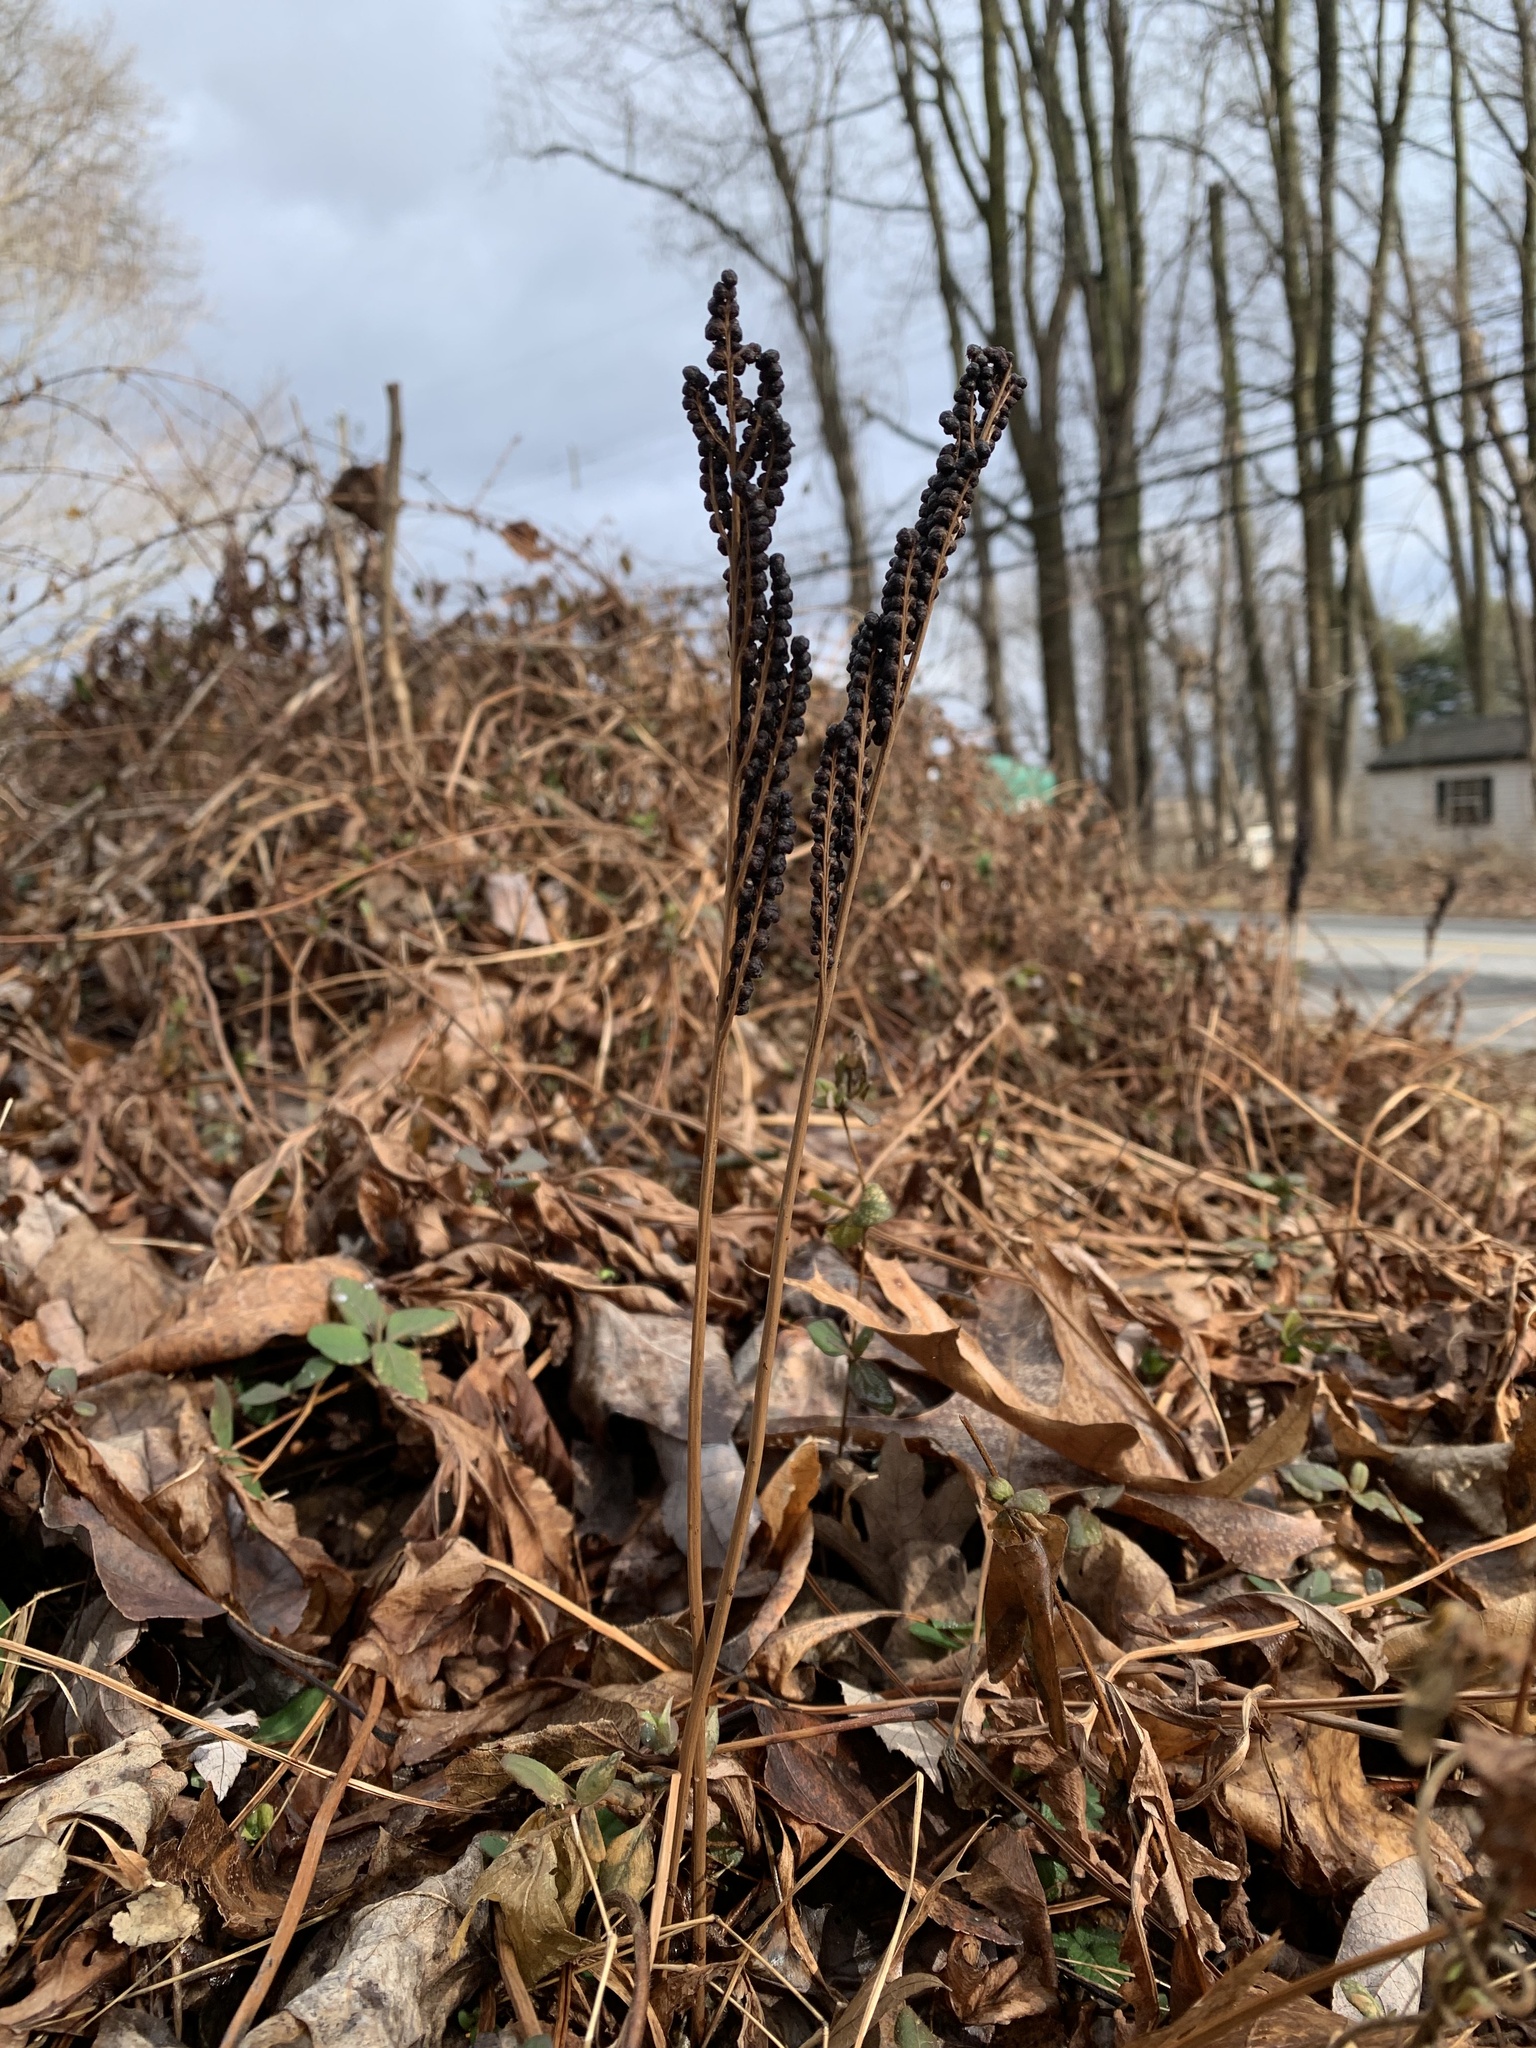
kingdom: Plantae
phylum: Tracheophyta
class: Polypodiopsida
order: Polypodiales
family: Onocleaceae
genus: Onoclea
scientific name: Onoclea sensibilis
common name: Sensitive fern
